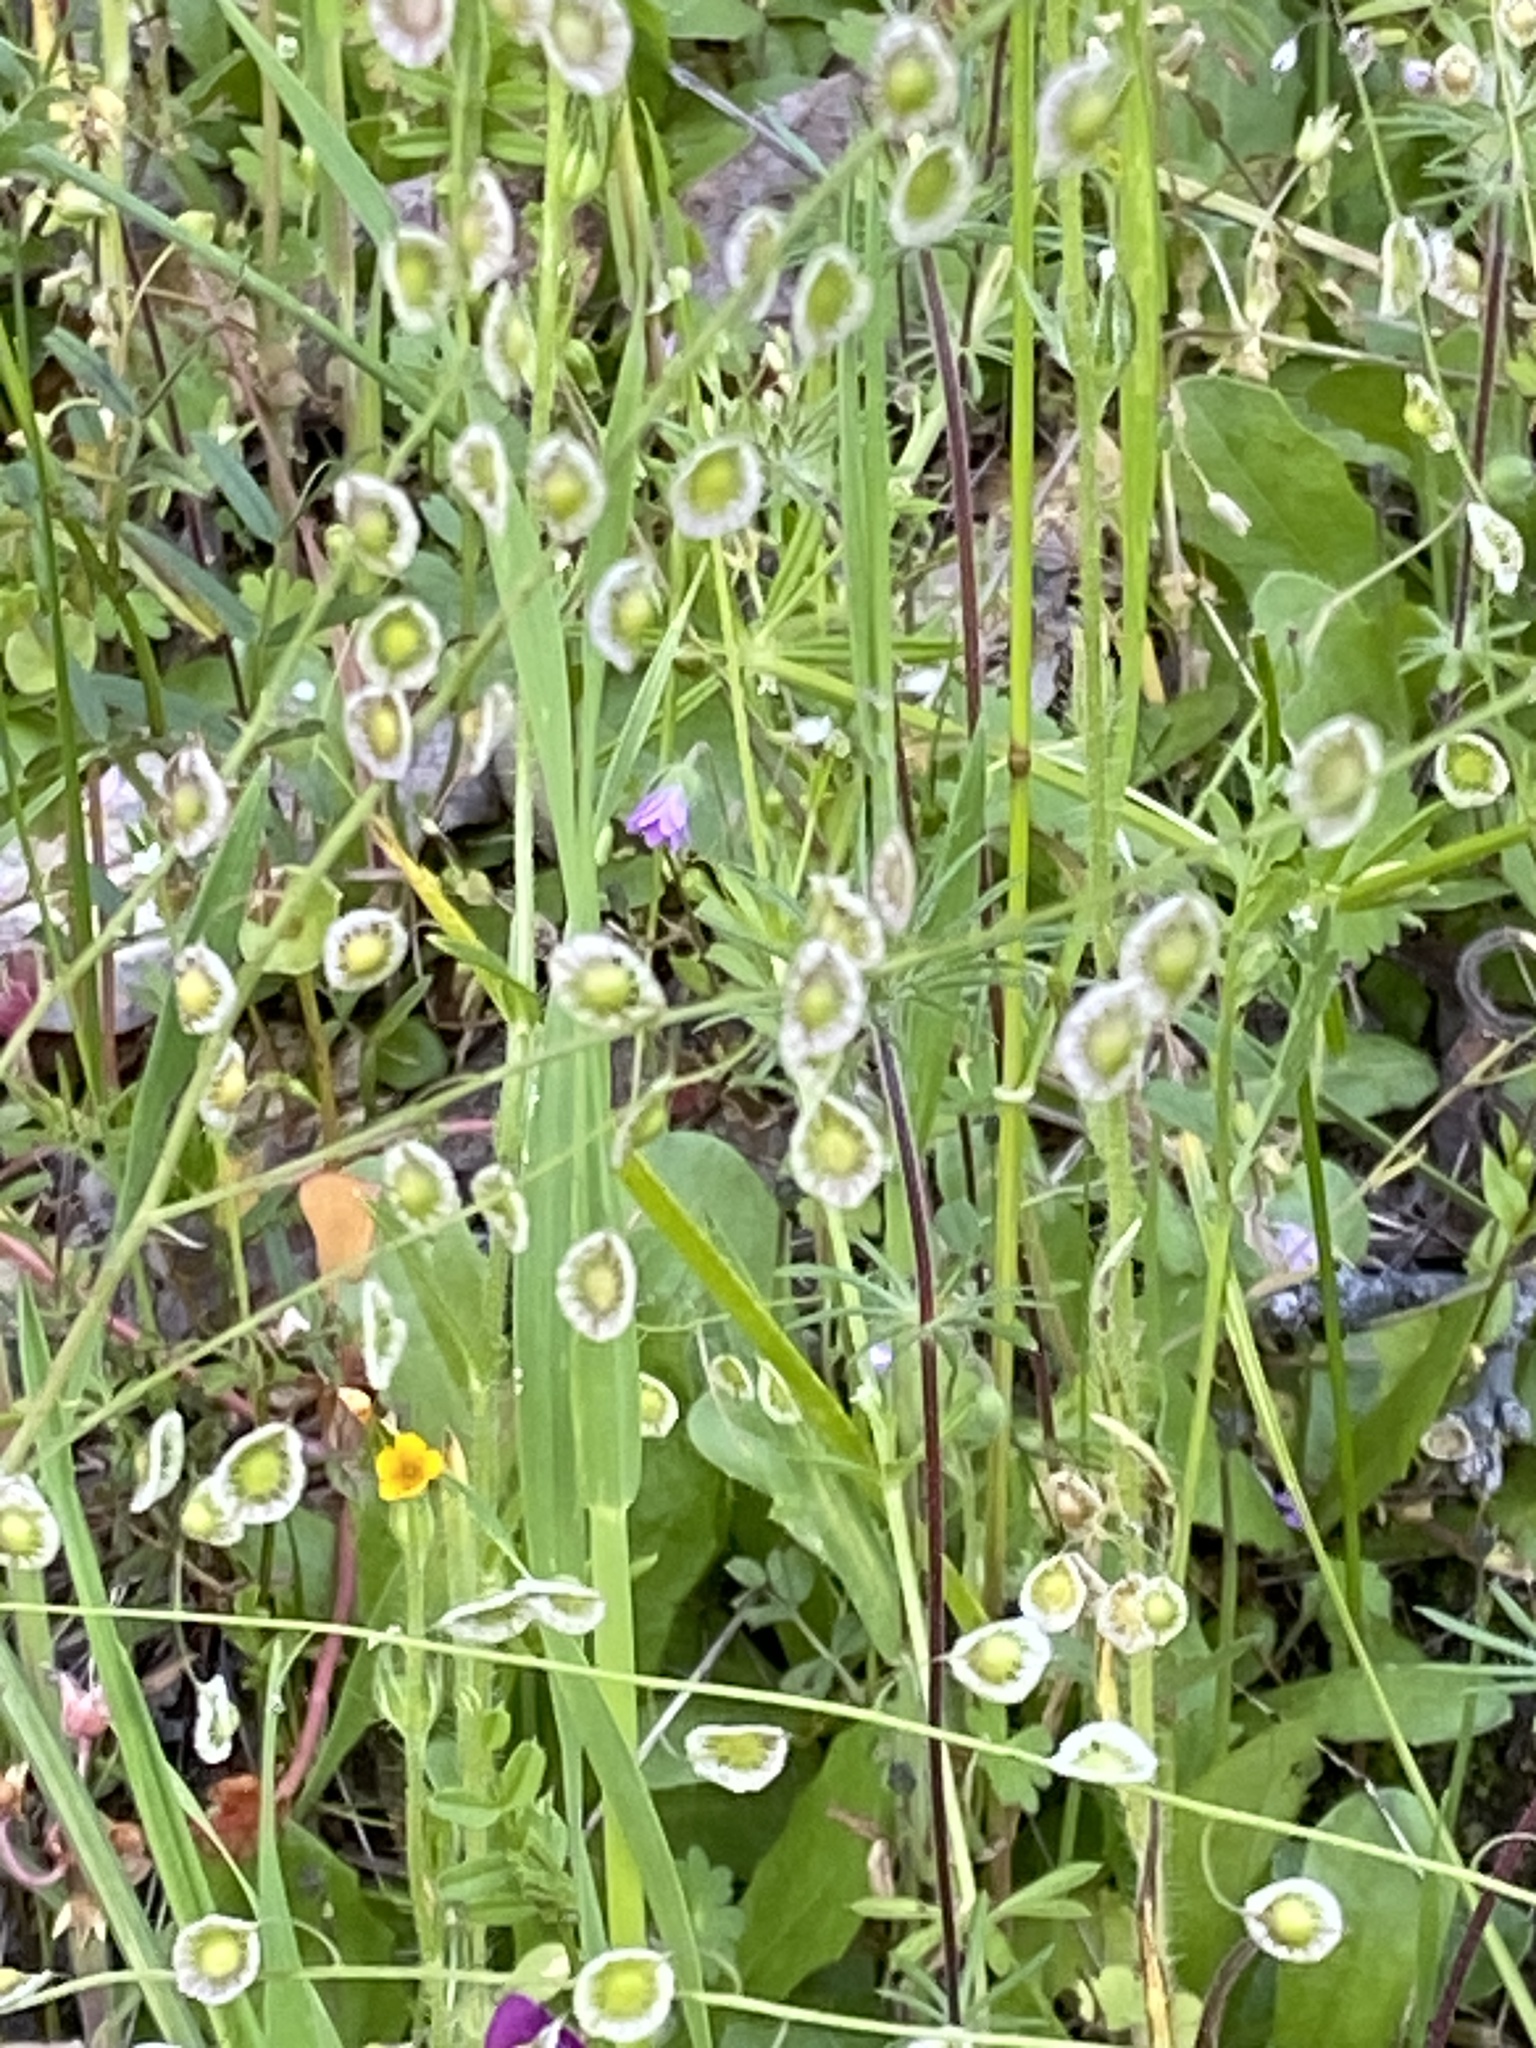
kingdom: Plantae
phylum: Tracheophyta
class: Magnoliopsida
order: Brassicales
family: Brassicaceae
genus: Thysanocarpus
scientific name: Thysanocarpus curvipes
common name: Sand fringepod
